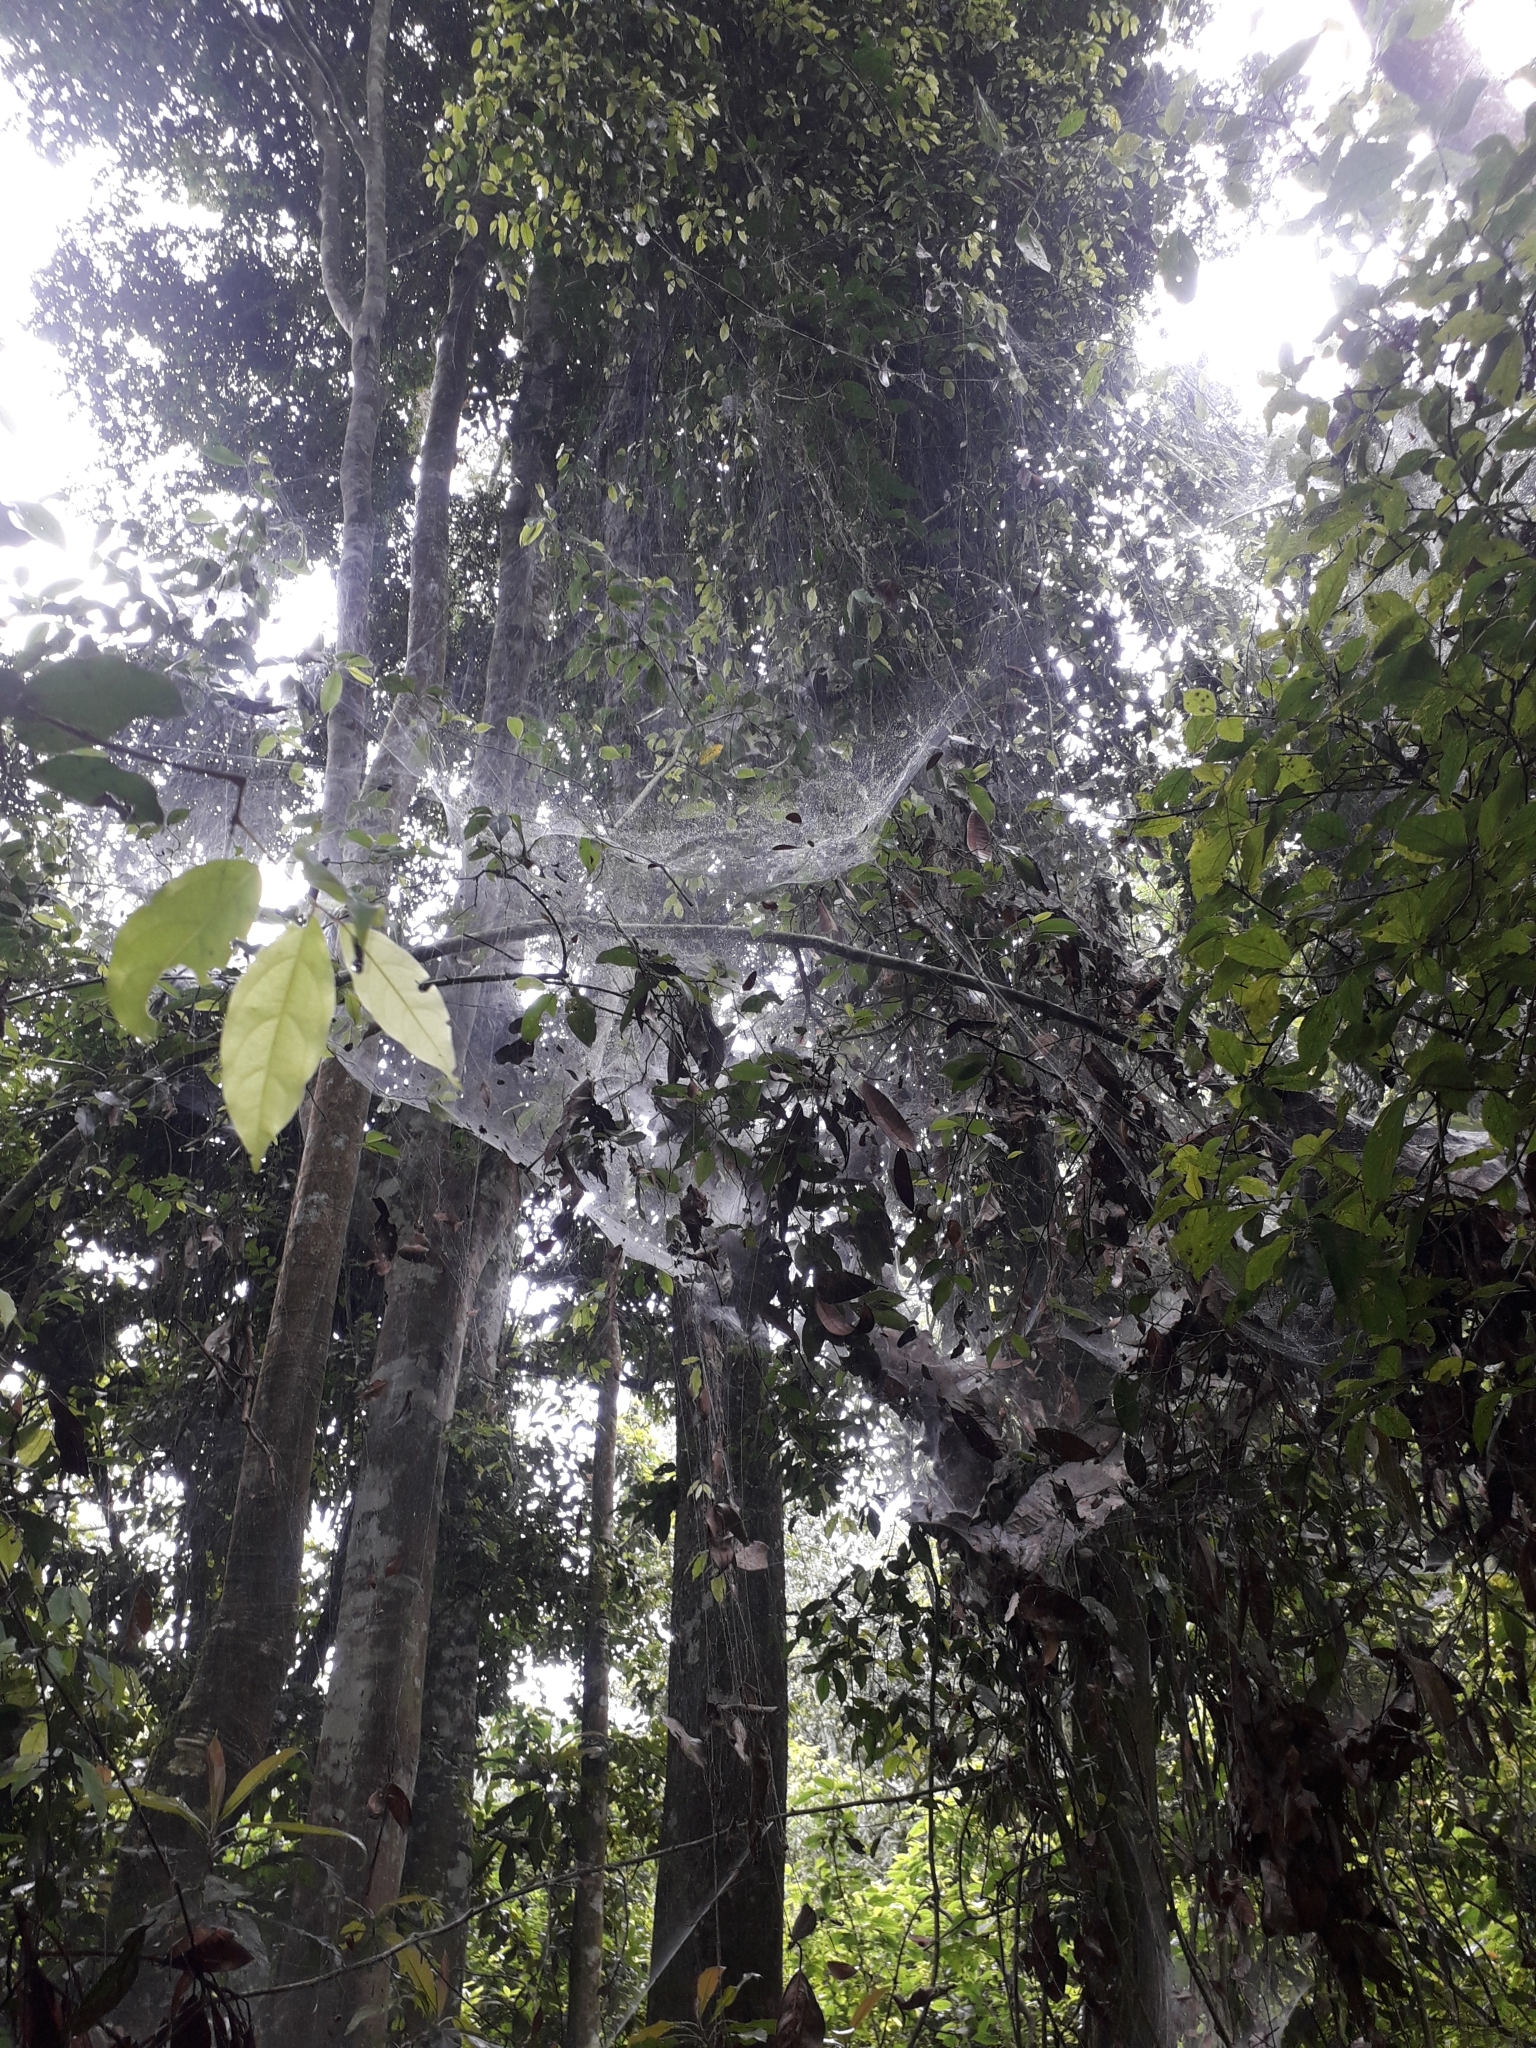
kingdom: Animalia
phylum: Arthropoda
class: Arachnida
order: Araneae
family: Agelenidae
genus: Agelena
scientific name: Agelena consociata
